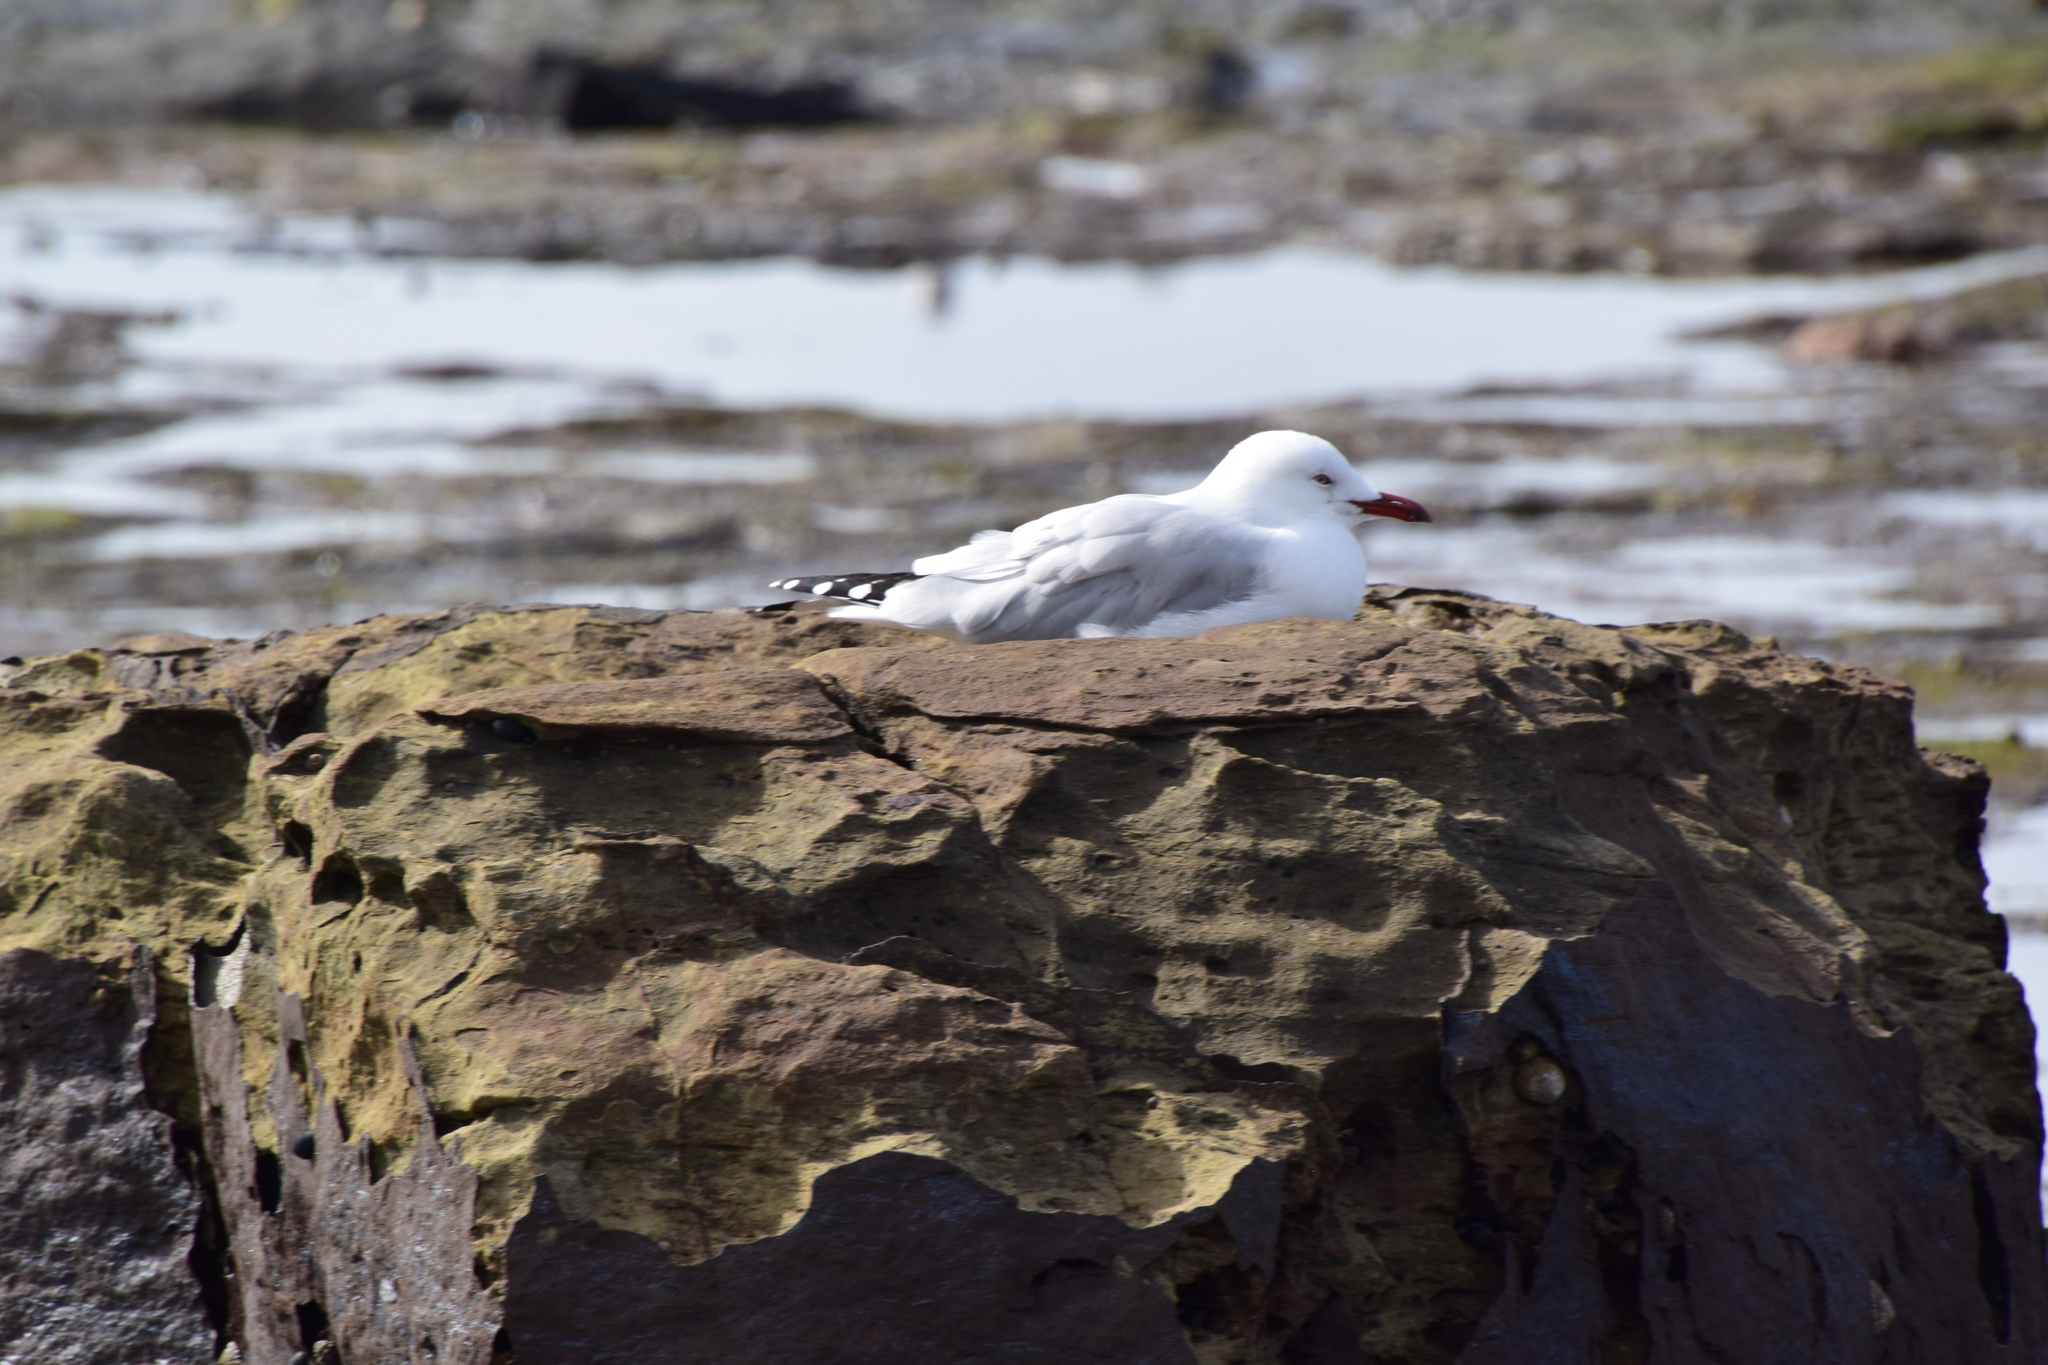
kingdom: Animalia
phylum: Chordata
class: Aves
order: Charadriiformes
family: Laridae
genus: Chroicocephalus
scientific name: Chroicocephalus novaehollandiae
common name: Silver gull
